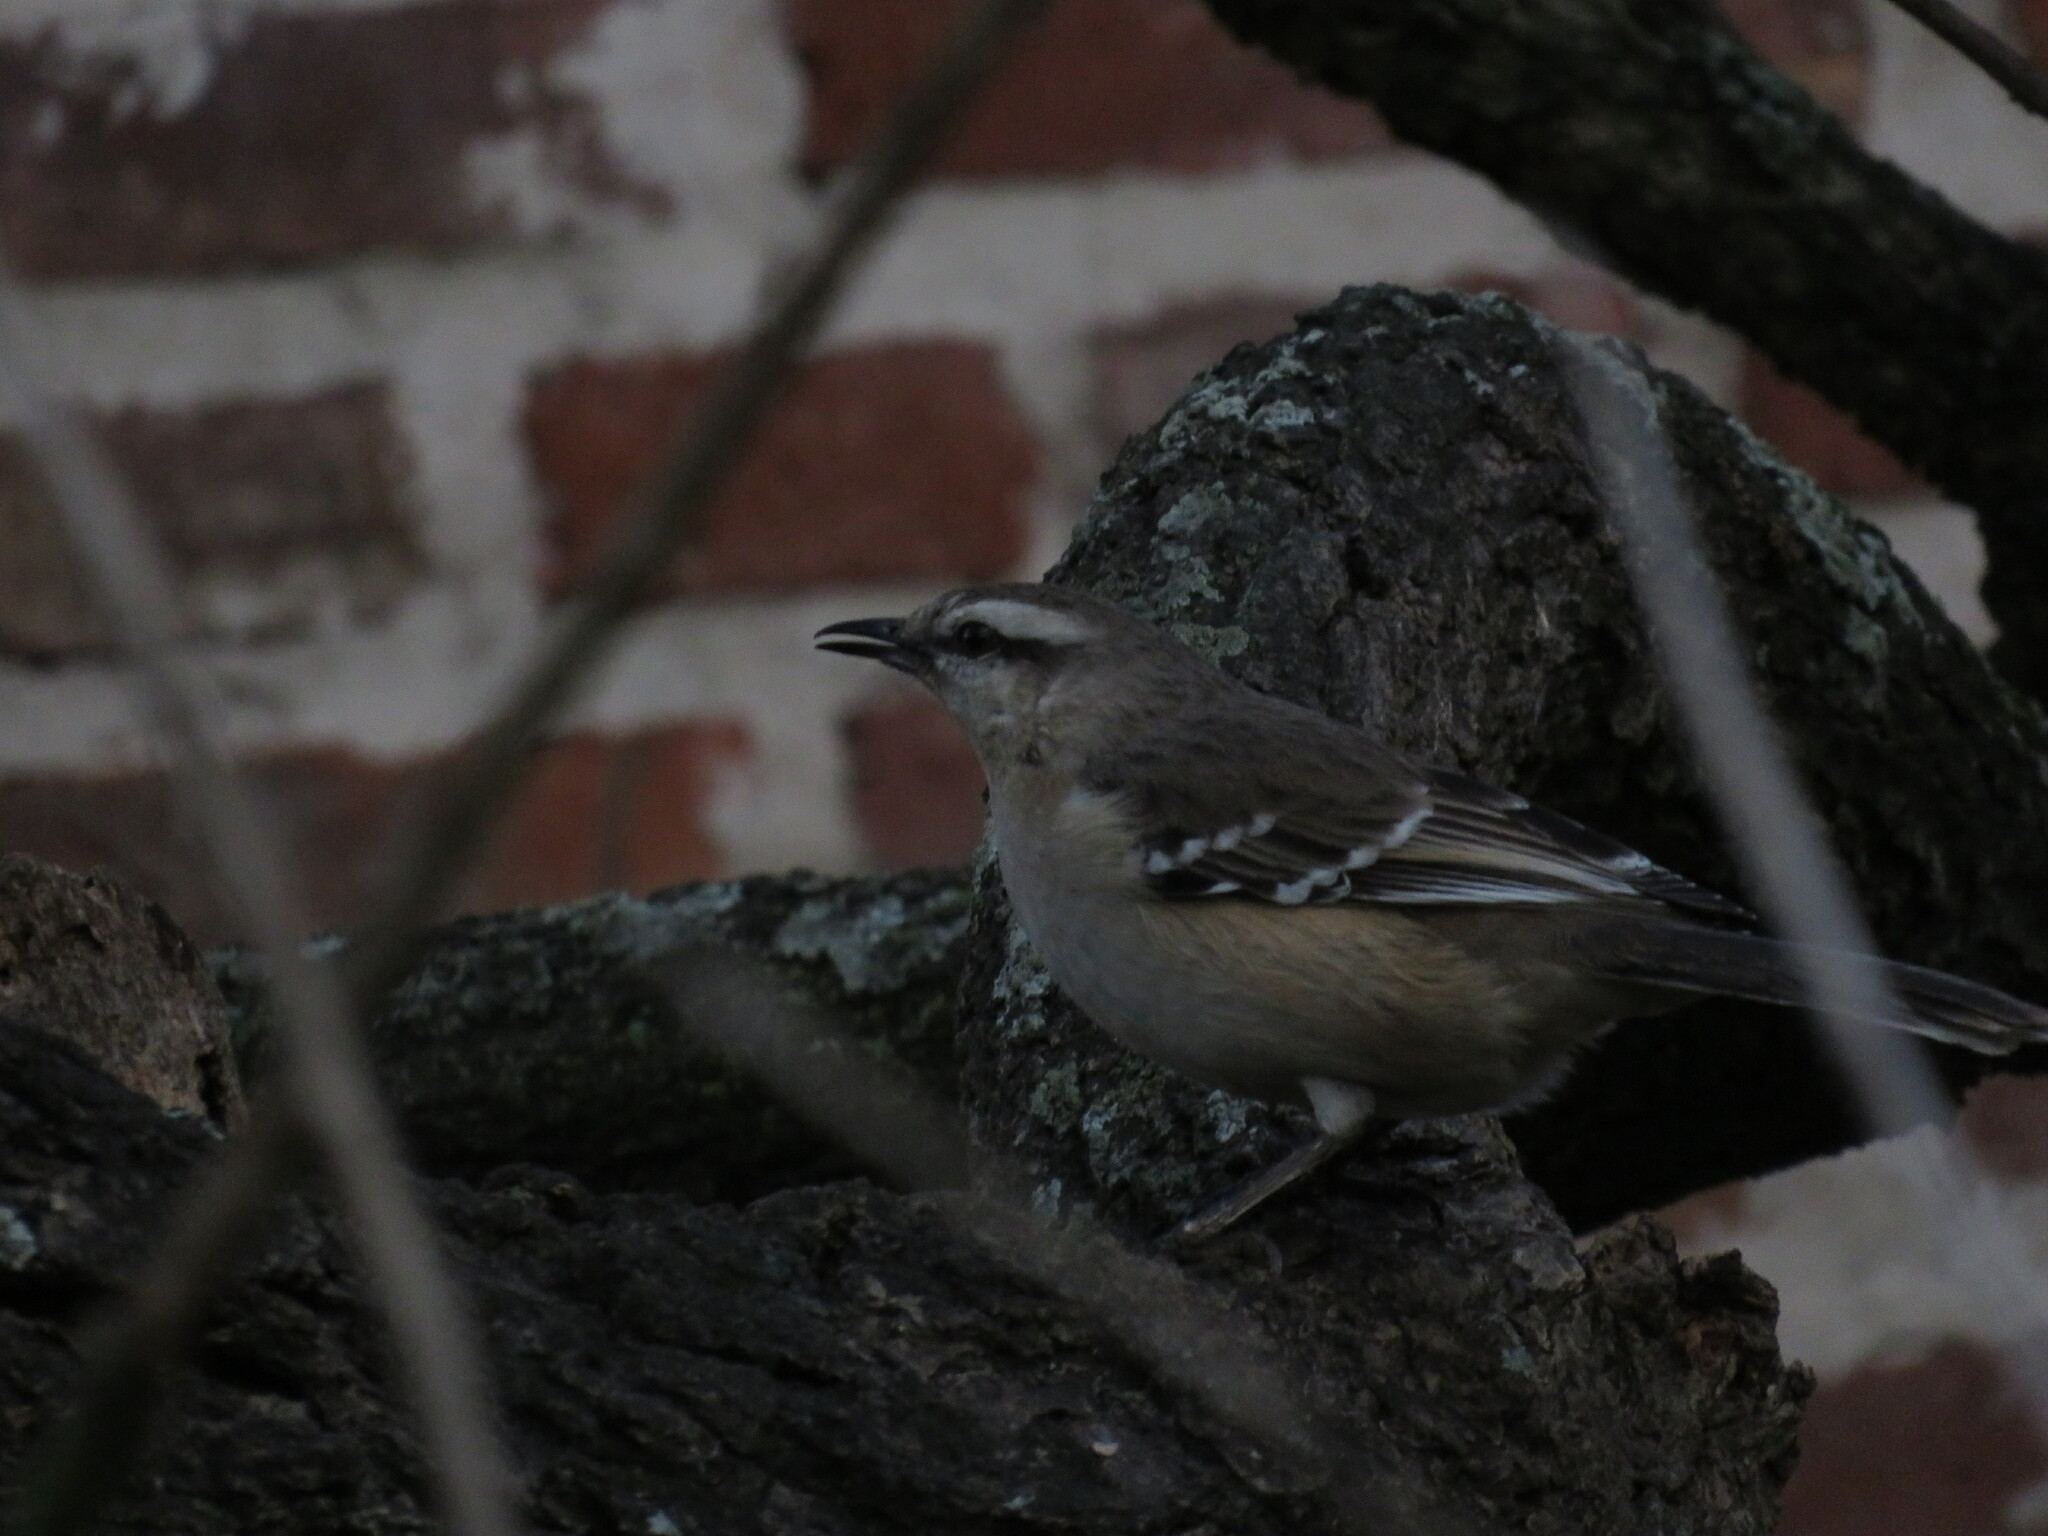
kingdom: Animalia
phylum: Chordata
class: Aves
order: Passeriformes
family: Mimidae
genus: Mimus
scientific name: Mimus saturninus
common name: Chalk-browed mockingbird
